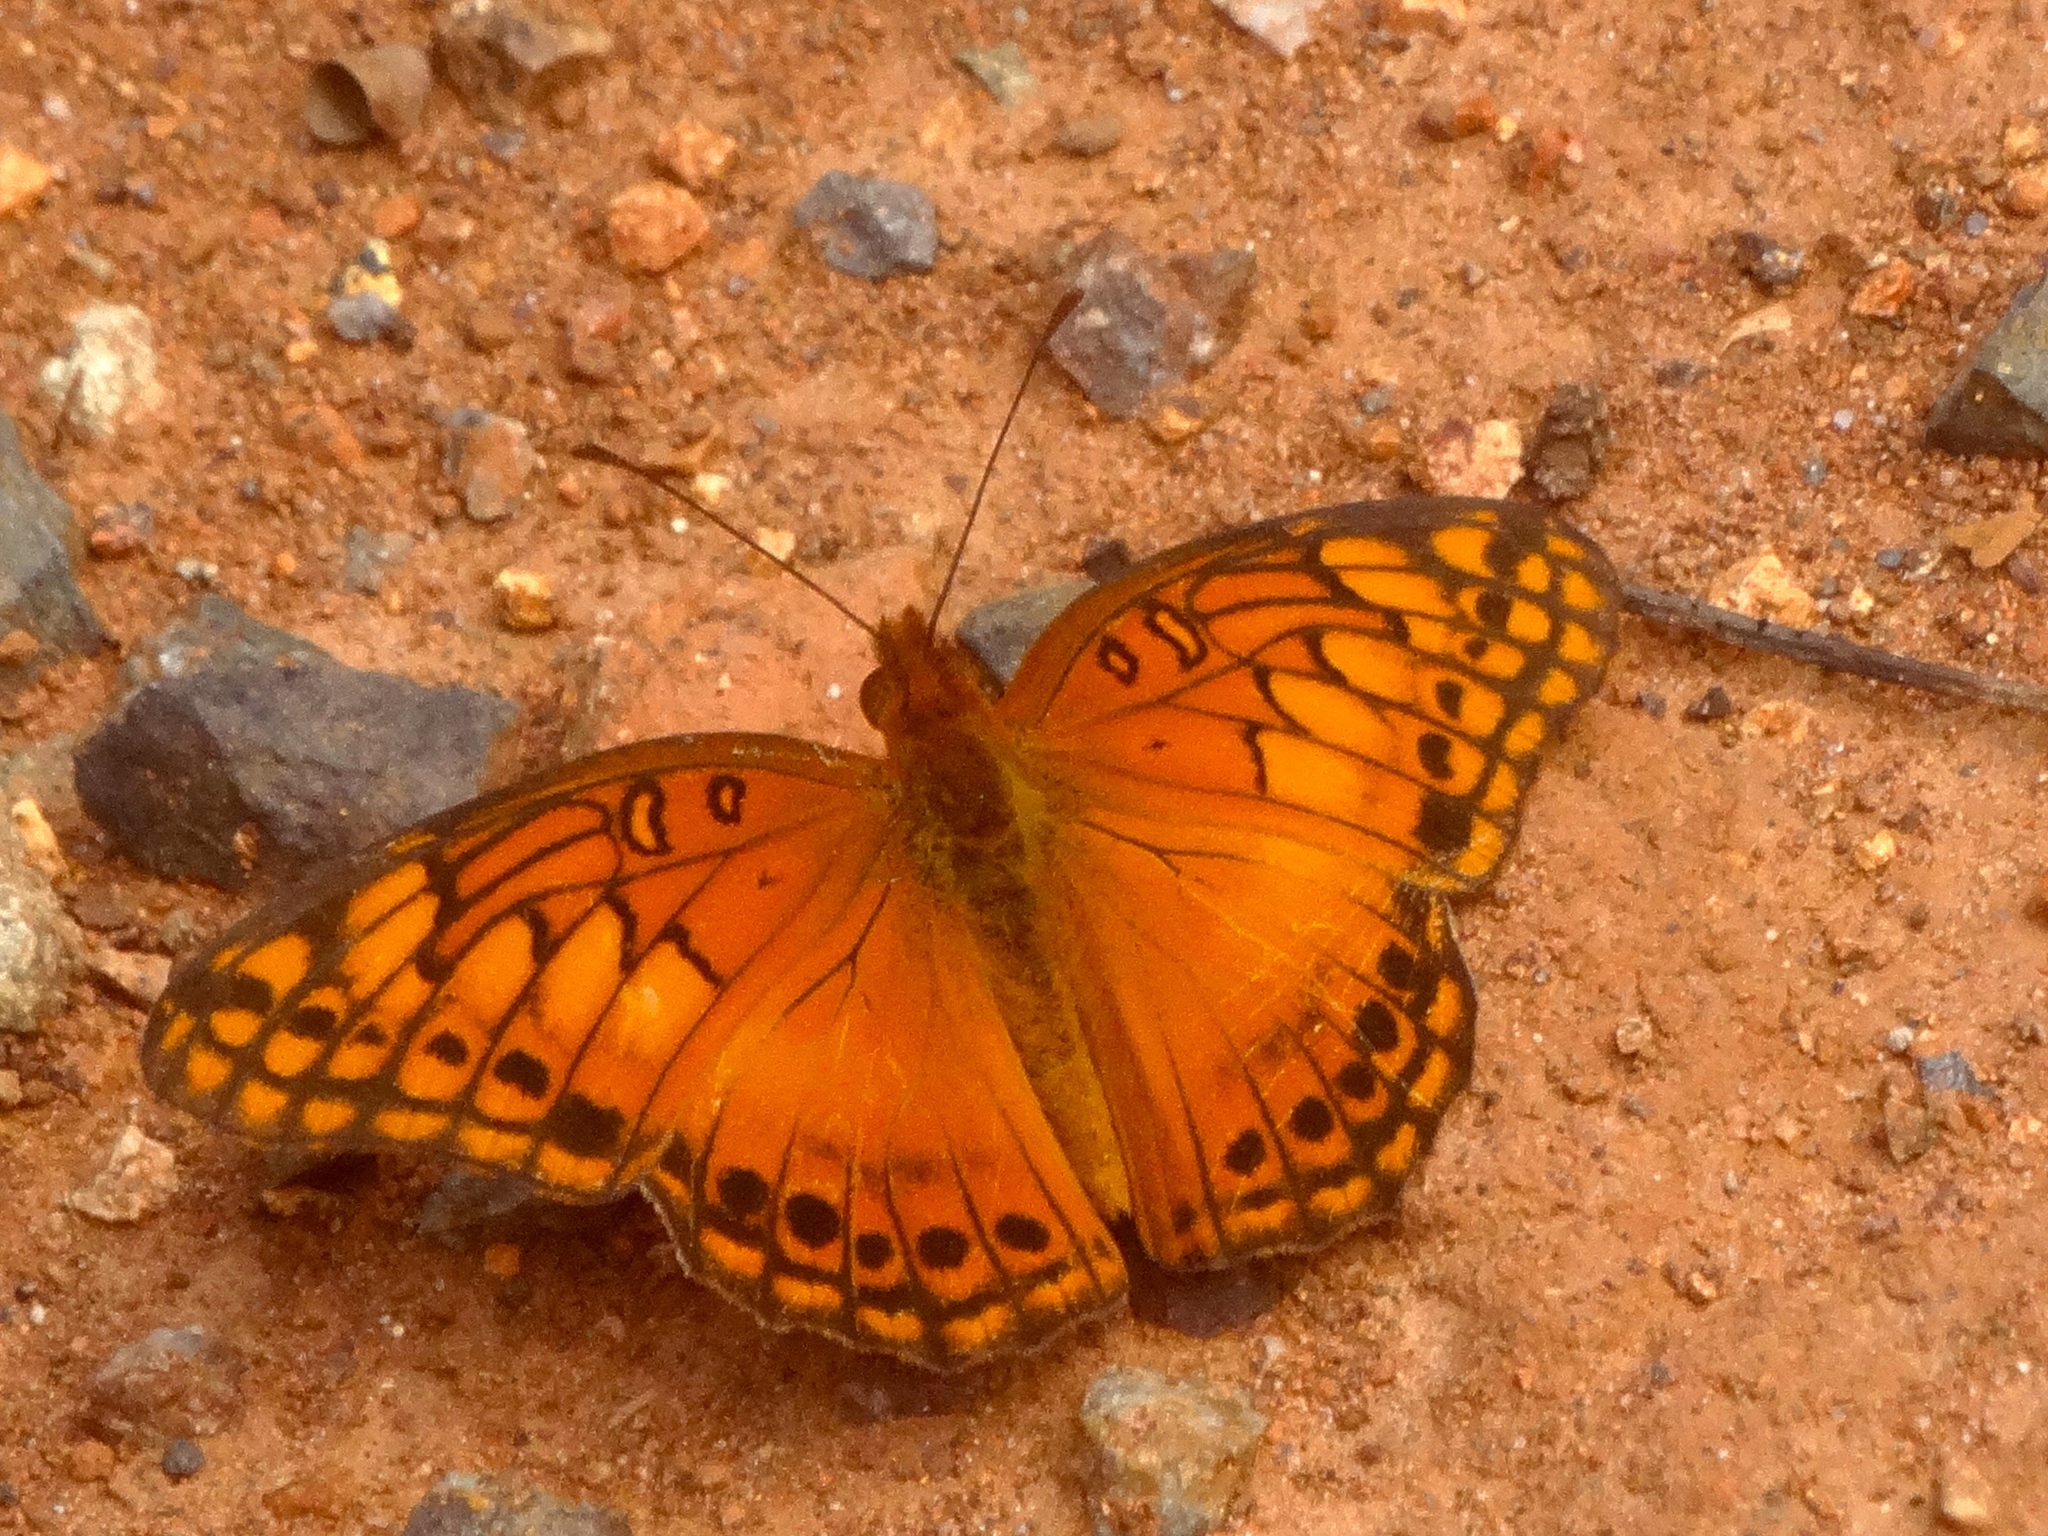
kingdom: Animalia
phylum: Arthropoda
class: Insecta
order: Lepidoptera
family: Nymphalidae
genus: Euptoieta
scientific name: Euptoieta hegesia
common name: Mexican fritillary
